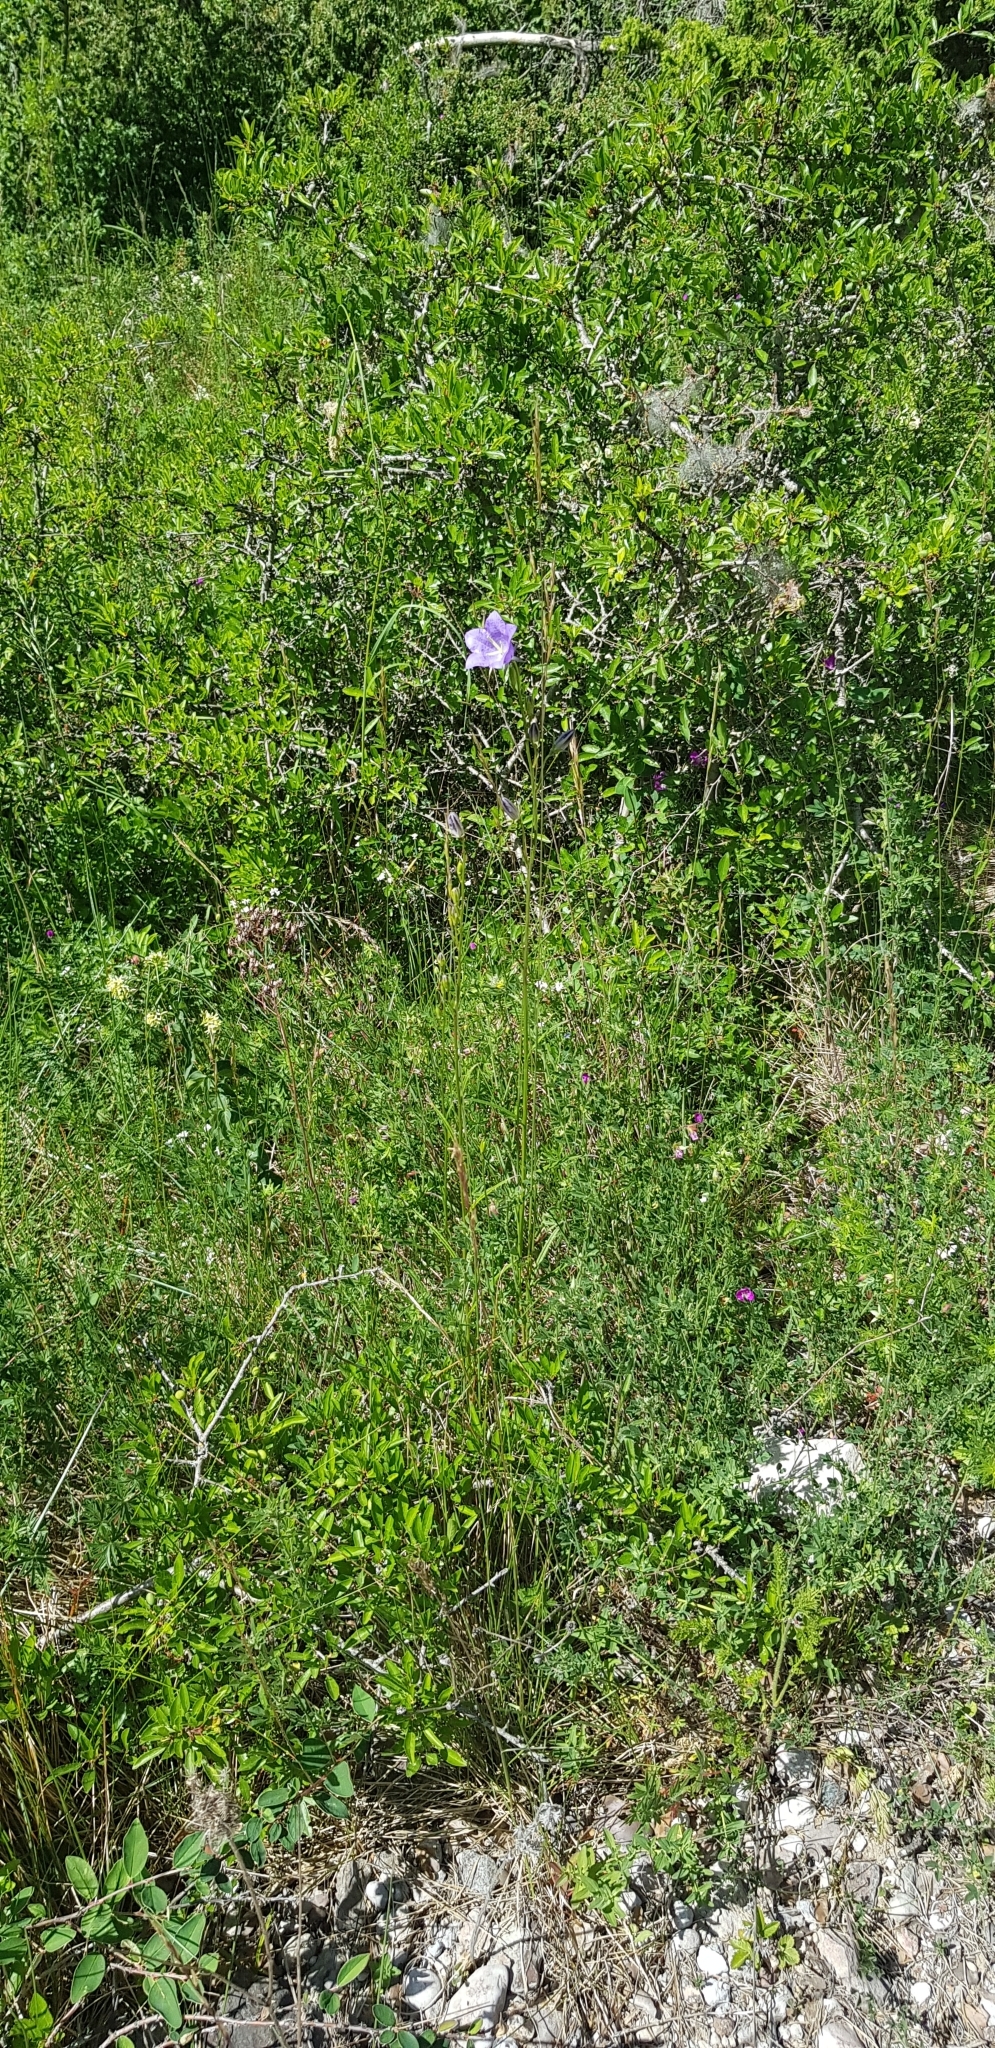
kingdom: Plantae
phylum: Tracheophyta
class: Magnoliopsida
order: Asterales
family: Campanulaceae
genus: Campanula
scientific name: Campanula persicifolia
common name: Peach-leaved bellflower
